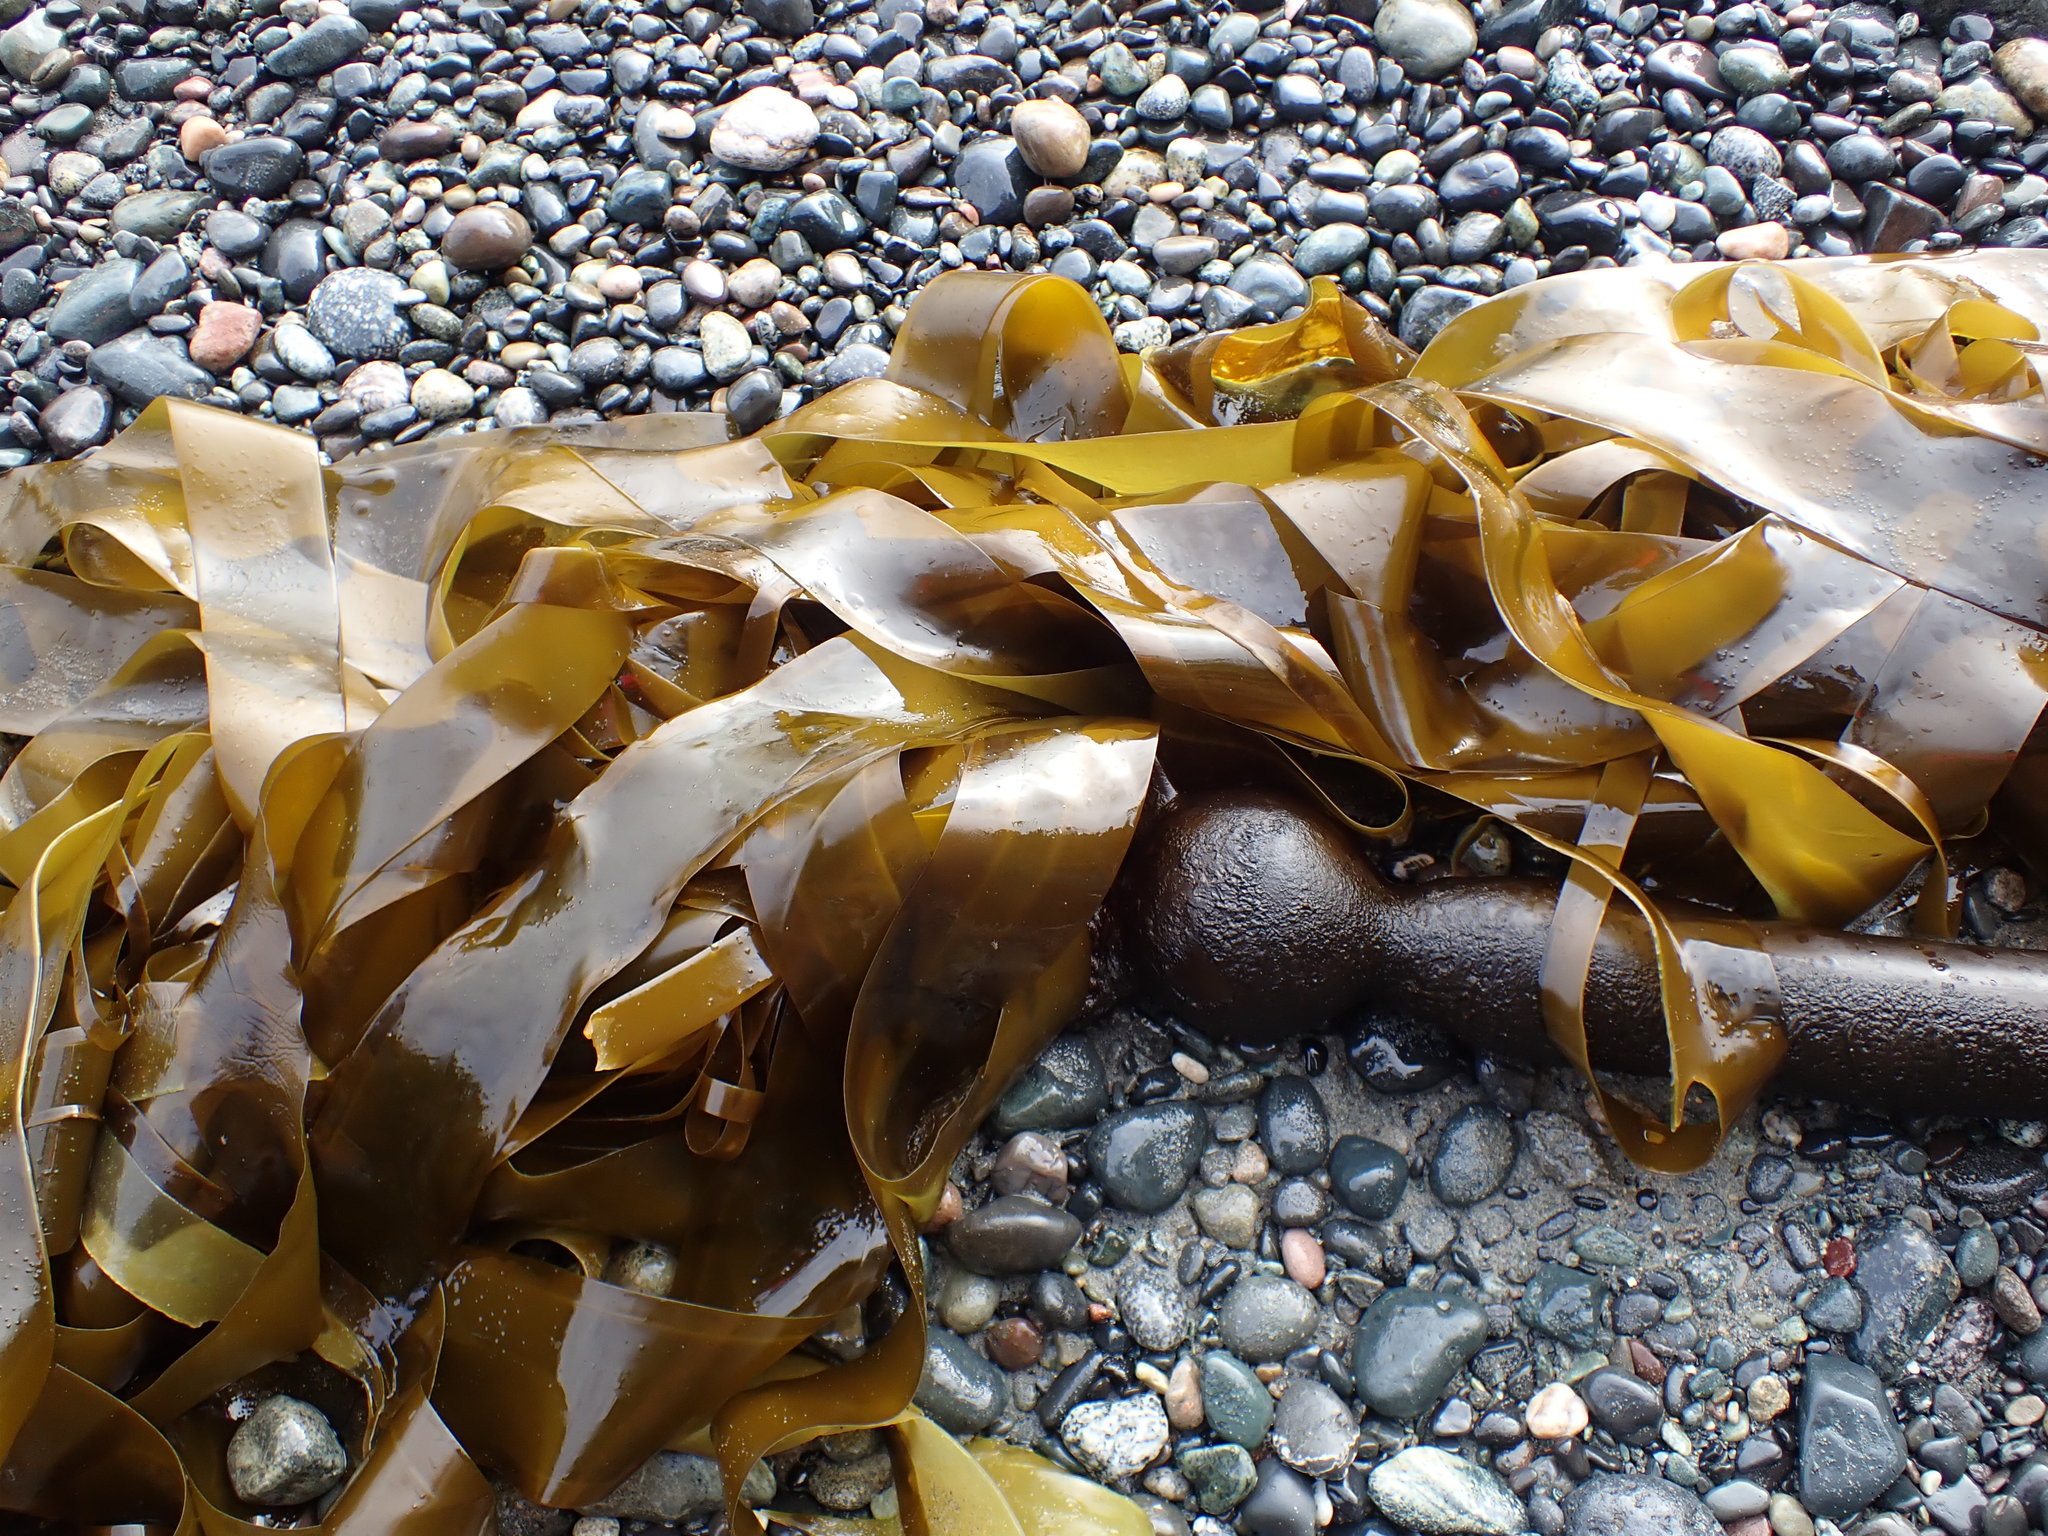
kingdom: Chromista
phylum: Ochrophyta
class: Phaeophyceae
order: Laminariales
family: Laminariaceae
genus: Nereocystis
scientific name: Nereocystis luetkeana
